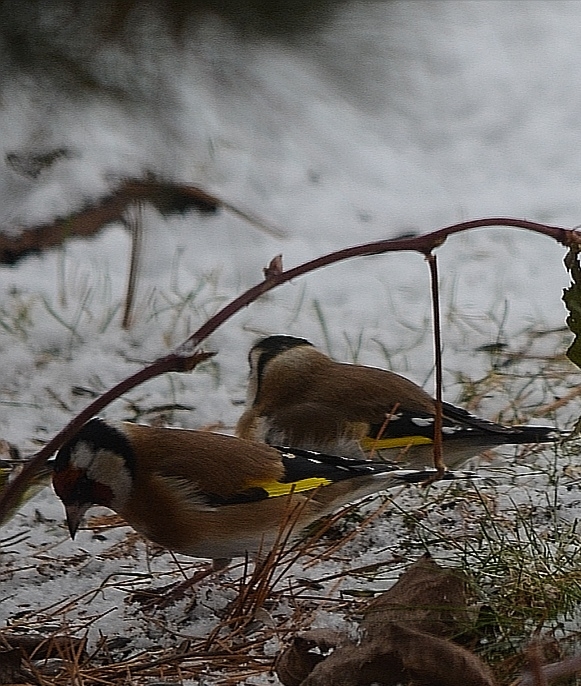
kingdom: Animalia
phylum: Chordata
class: Aves
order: Passeriformes
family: Fringillidae
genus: Carduelis
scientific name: Carduelis carduelis
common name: European goldfinch
